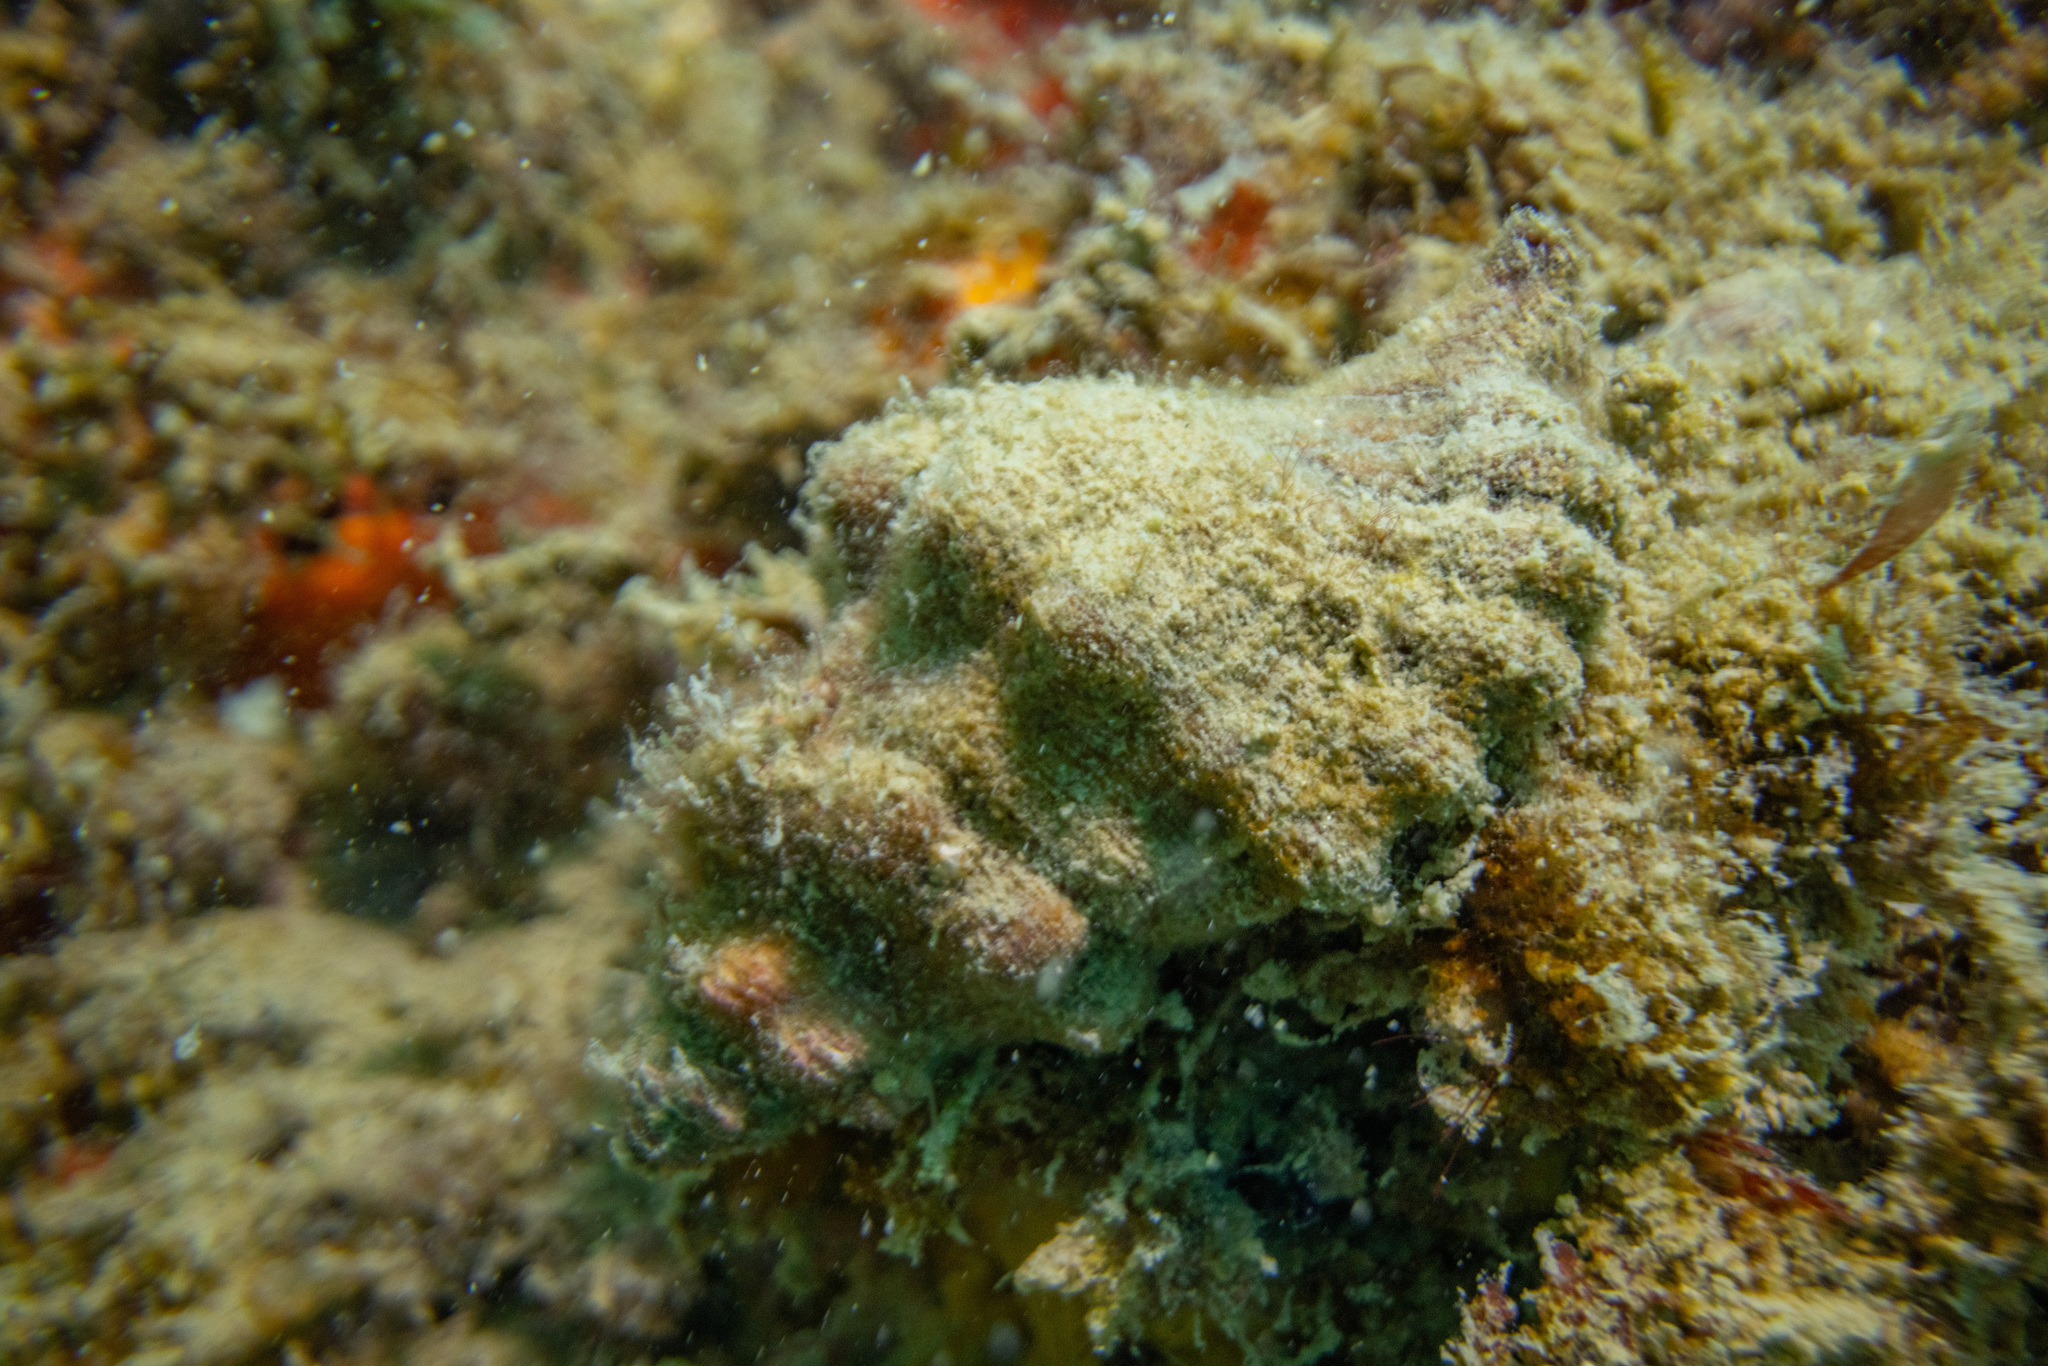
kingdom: Animalia
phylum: Mollusca
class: Gastropoda
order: Littorinimorpha
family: Cymatiidae
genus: Cabestana
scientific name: Cabestana spengleri
